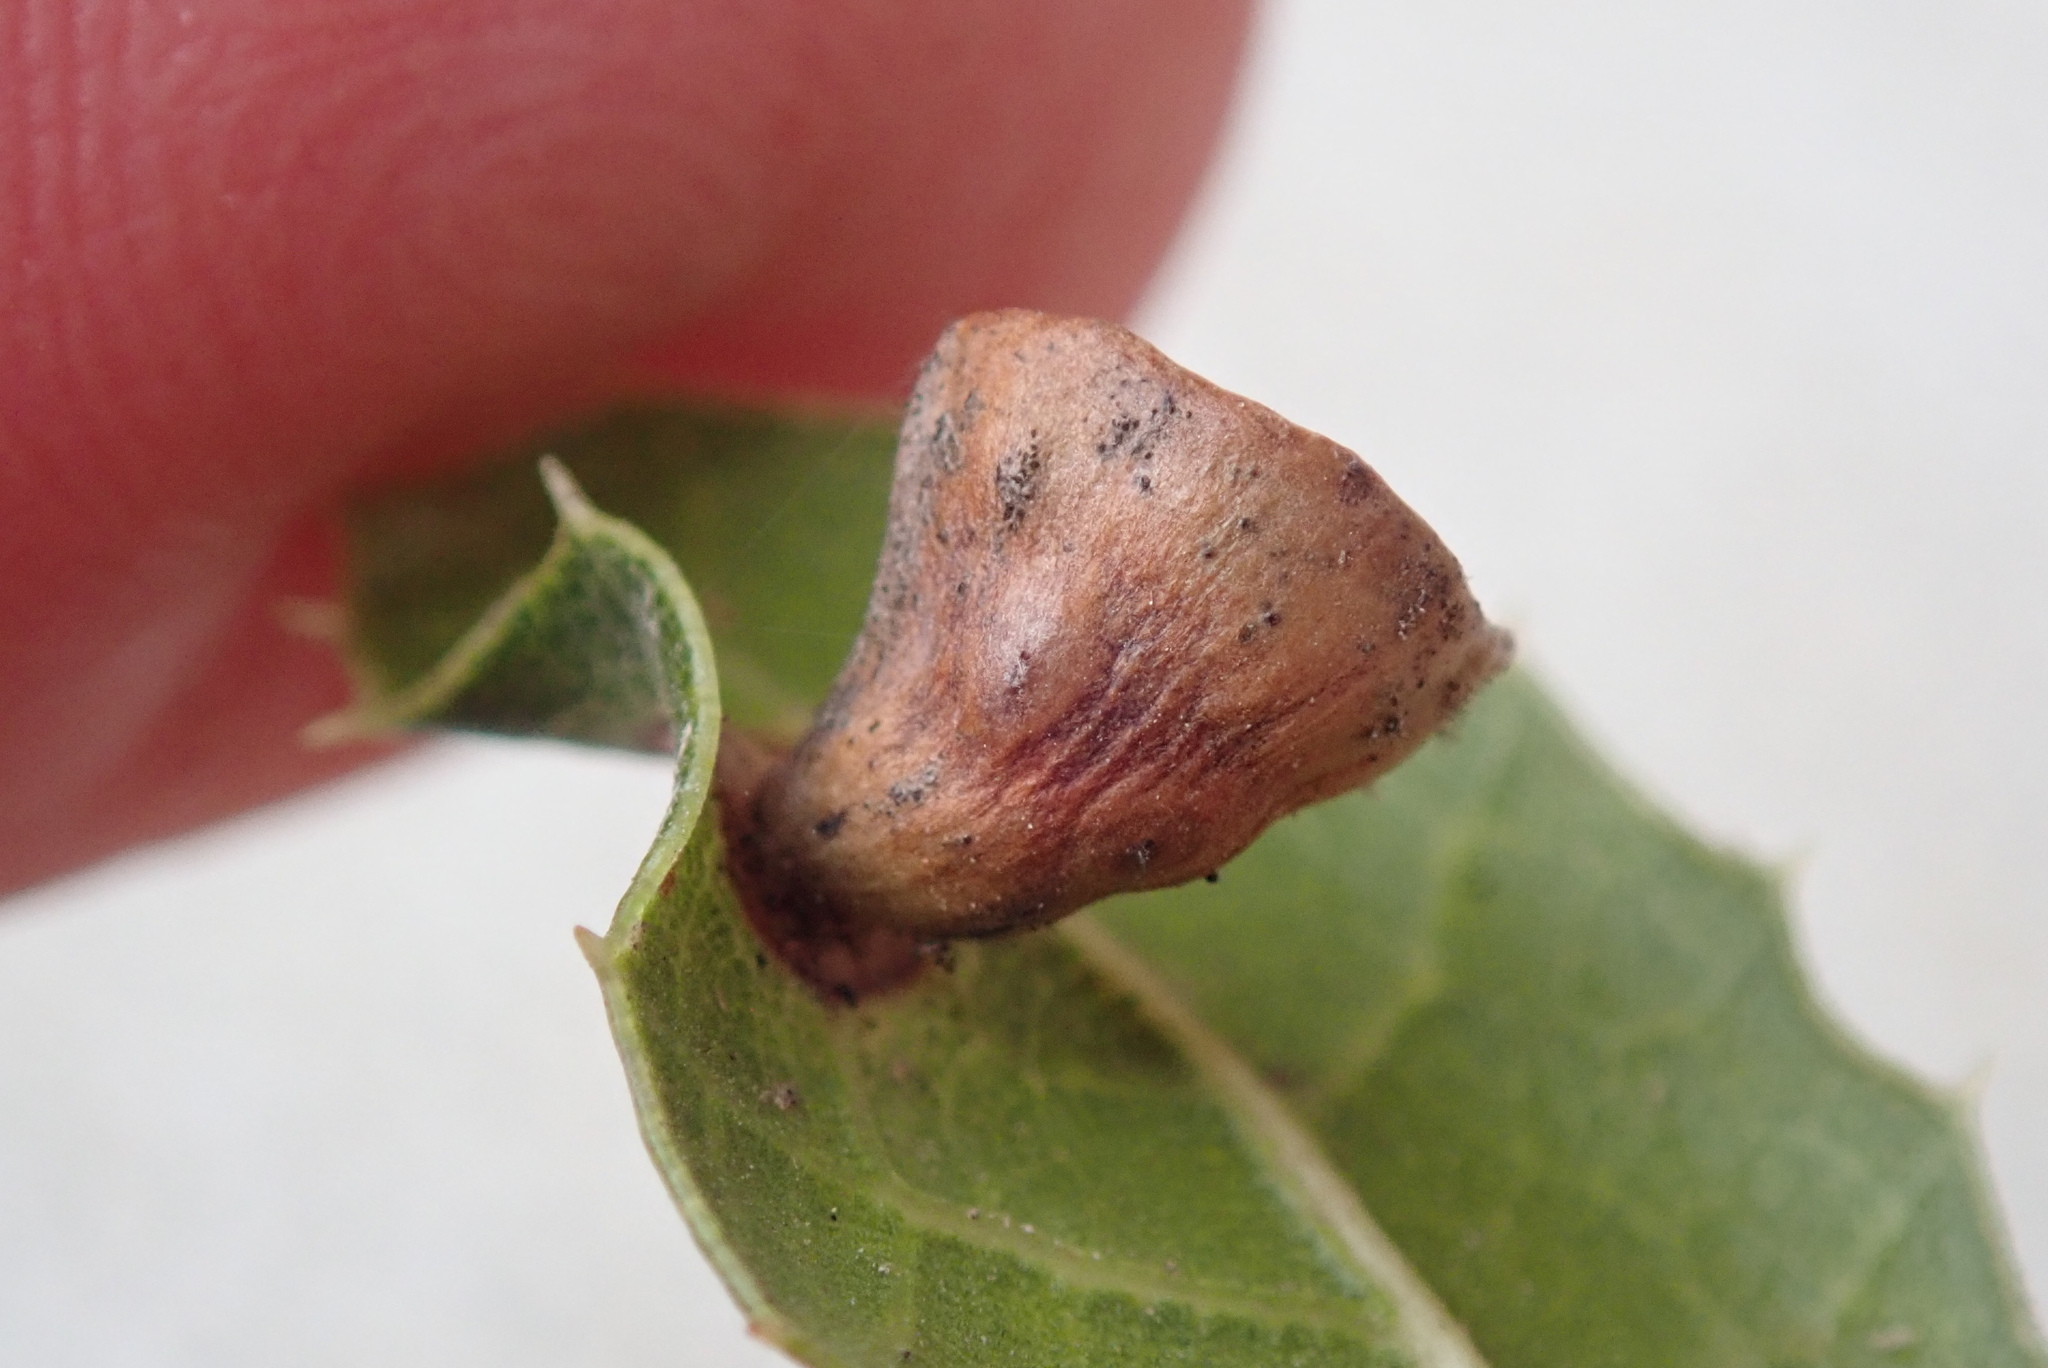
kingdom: Animalia
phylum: Arthropoda
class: Insecta
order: Hymenoptera
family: Cynipidae
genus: Amphibolips
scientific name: Amphibolips quercuspomiformis
